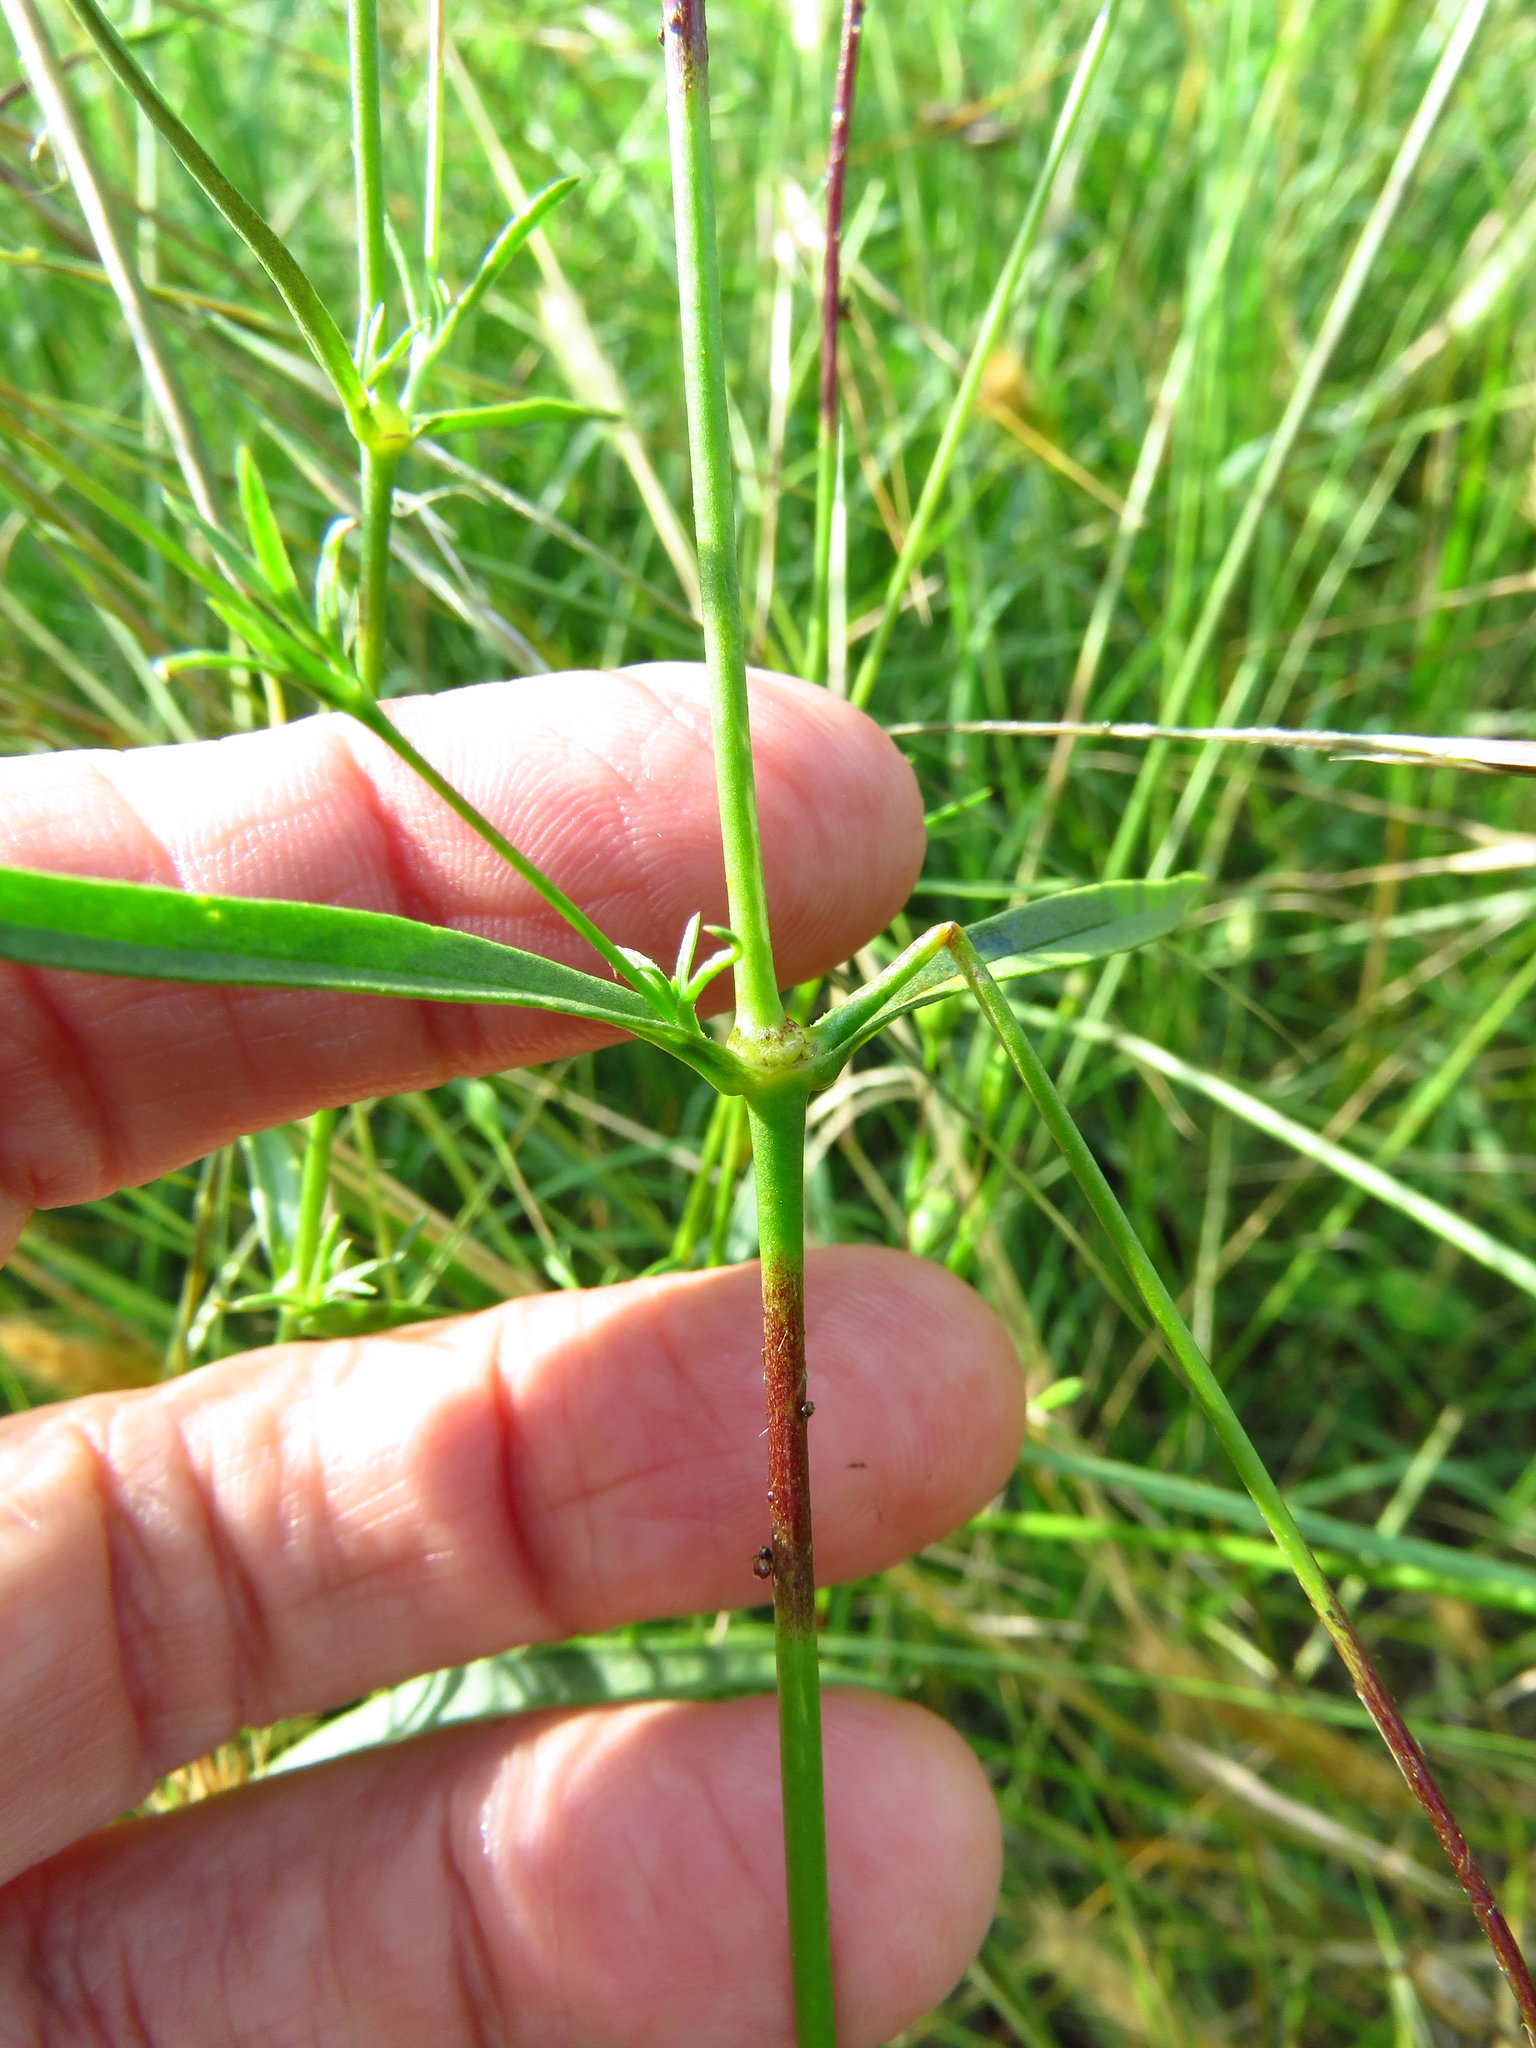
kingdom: Plantae
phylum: Tracheophyta
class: Magnoliopsida
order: Caryophyllales
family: Caryophyllaceae
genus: Silene
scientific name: Silene antirrhina
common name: Sleepy catchfly
